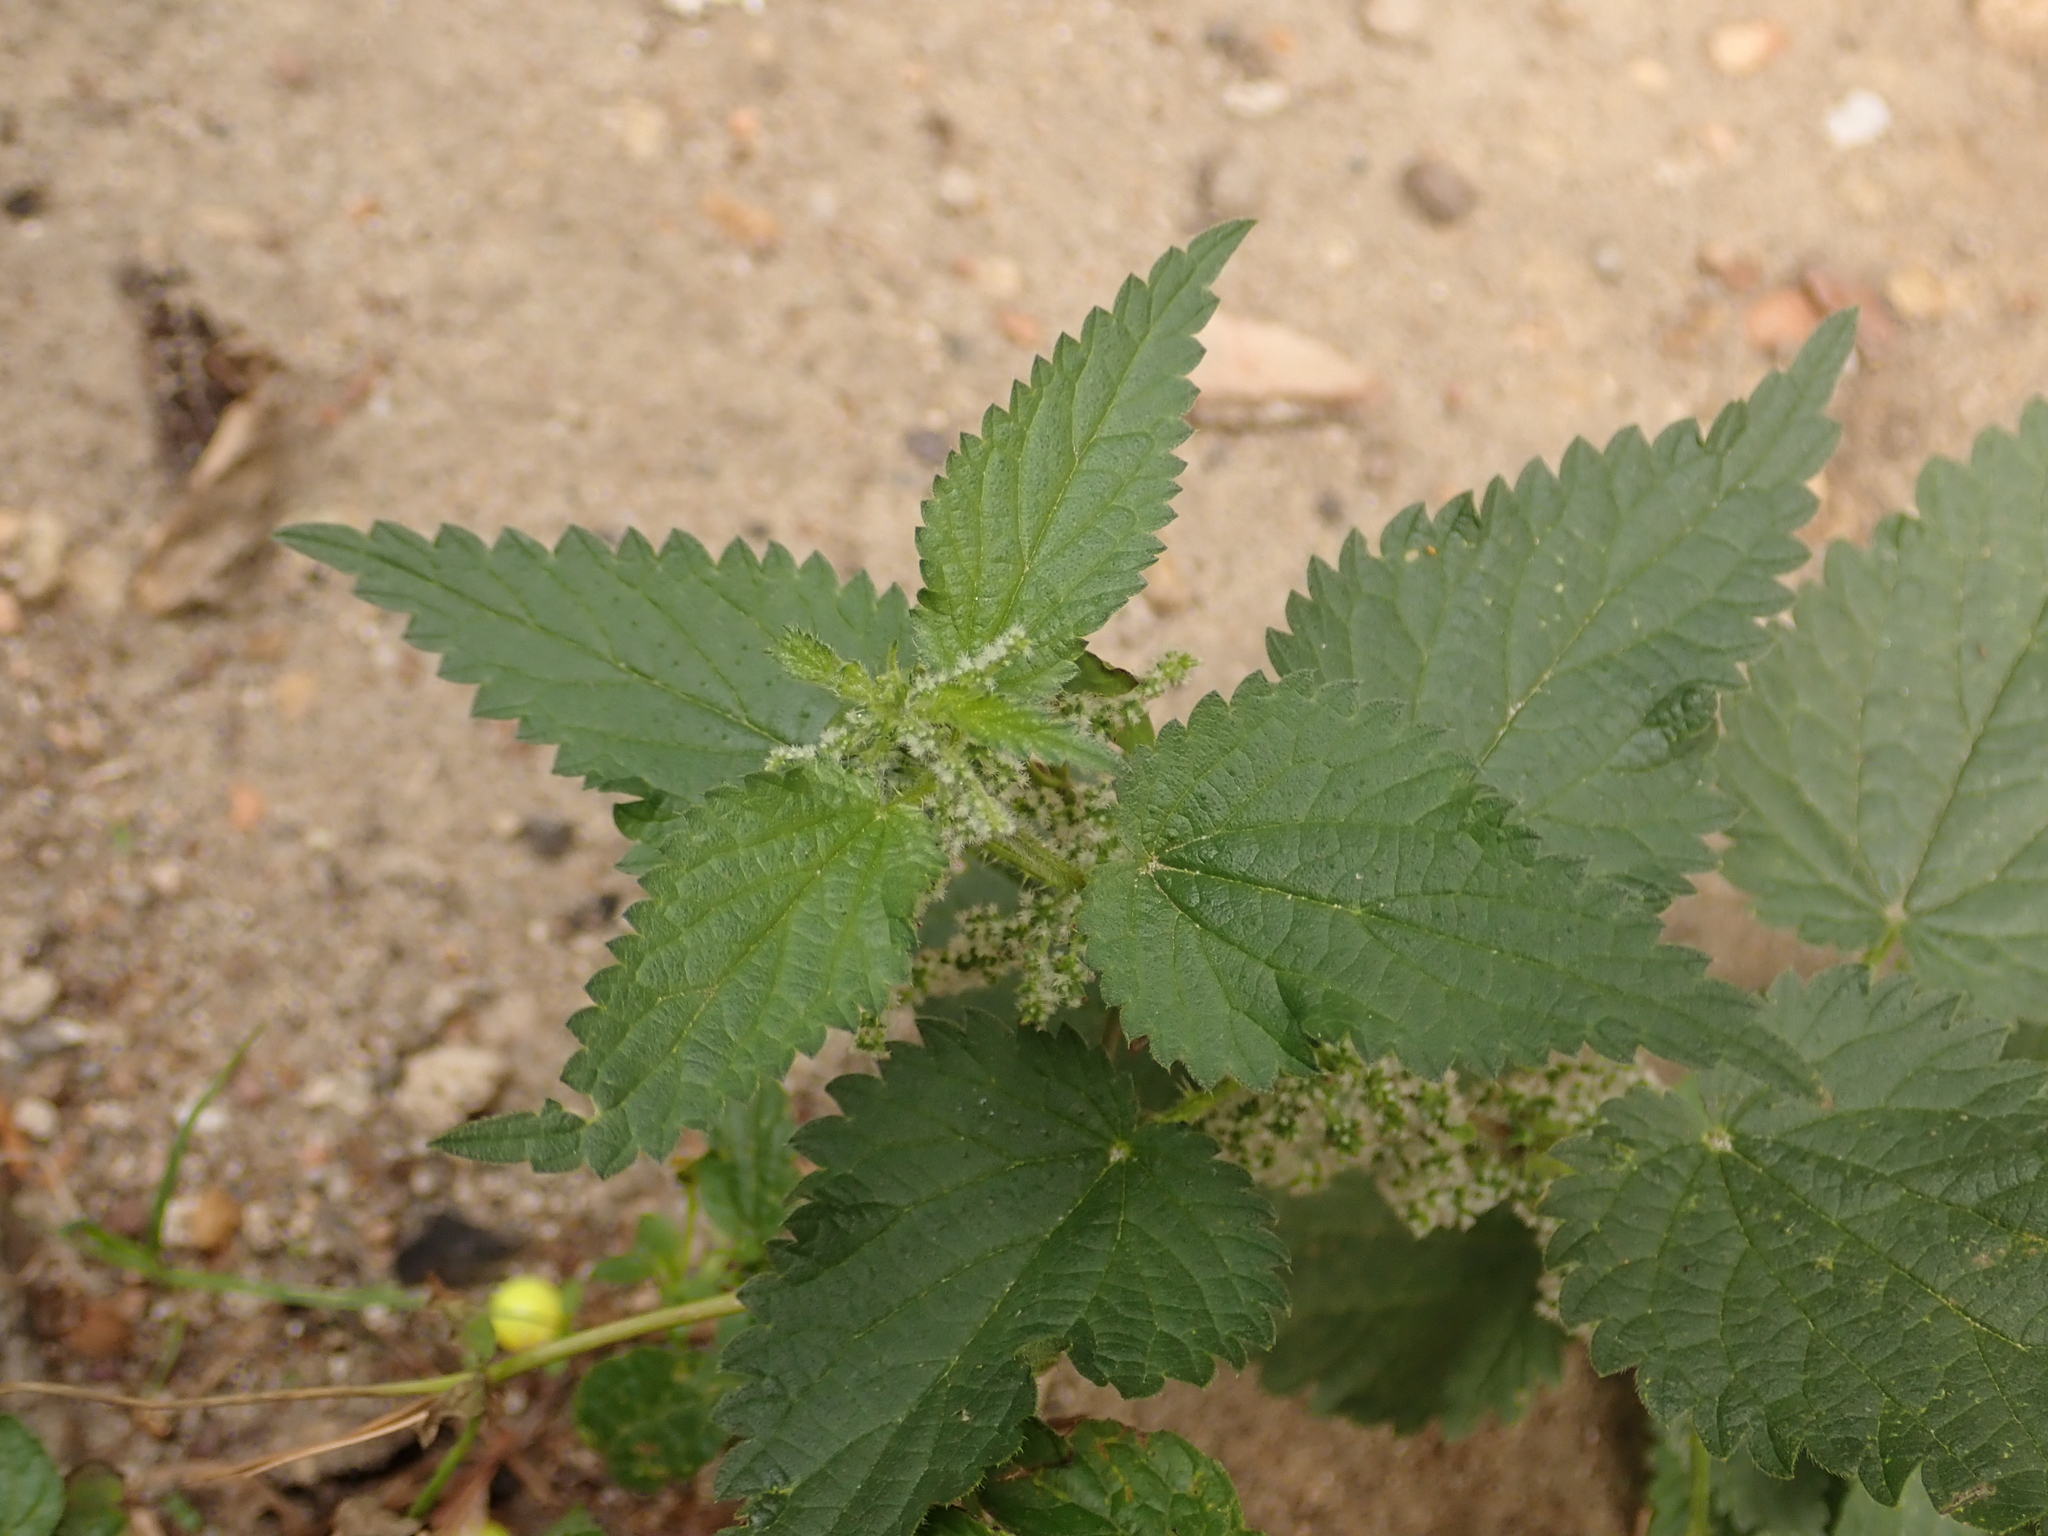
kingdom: Plantae
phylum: Tracheophyta
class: Magnoliopsida
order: Rosales
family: Urticaceae
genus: Urtica
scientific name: Urtica dioica
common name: Common nettle
